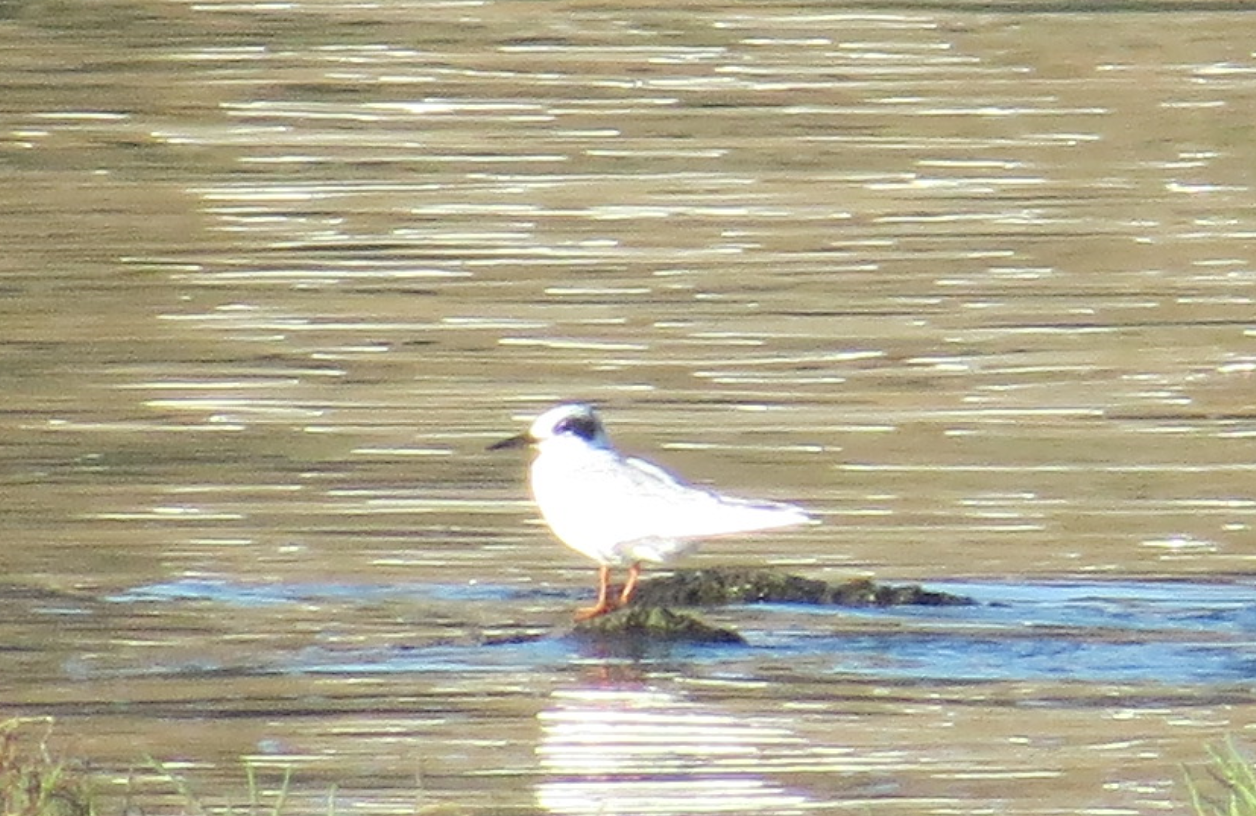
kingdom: Animalia
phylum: Chordata
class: Aves
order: Charadriiformes
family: Laridae
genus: Sterna
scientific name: Sterna forsteri
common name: Forster's tern
